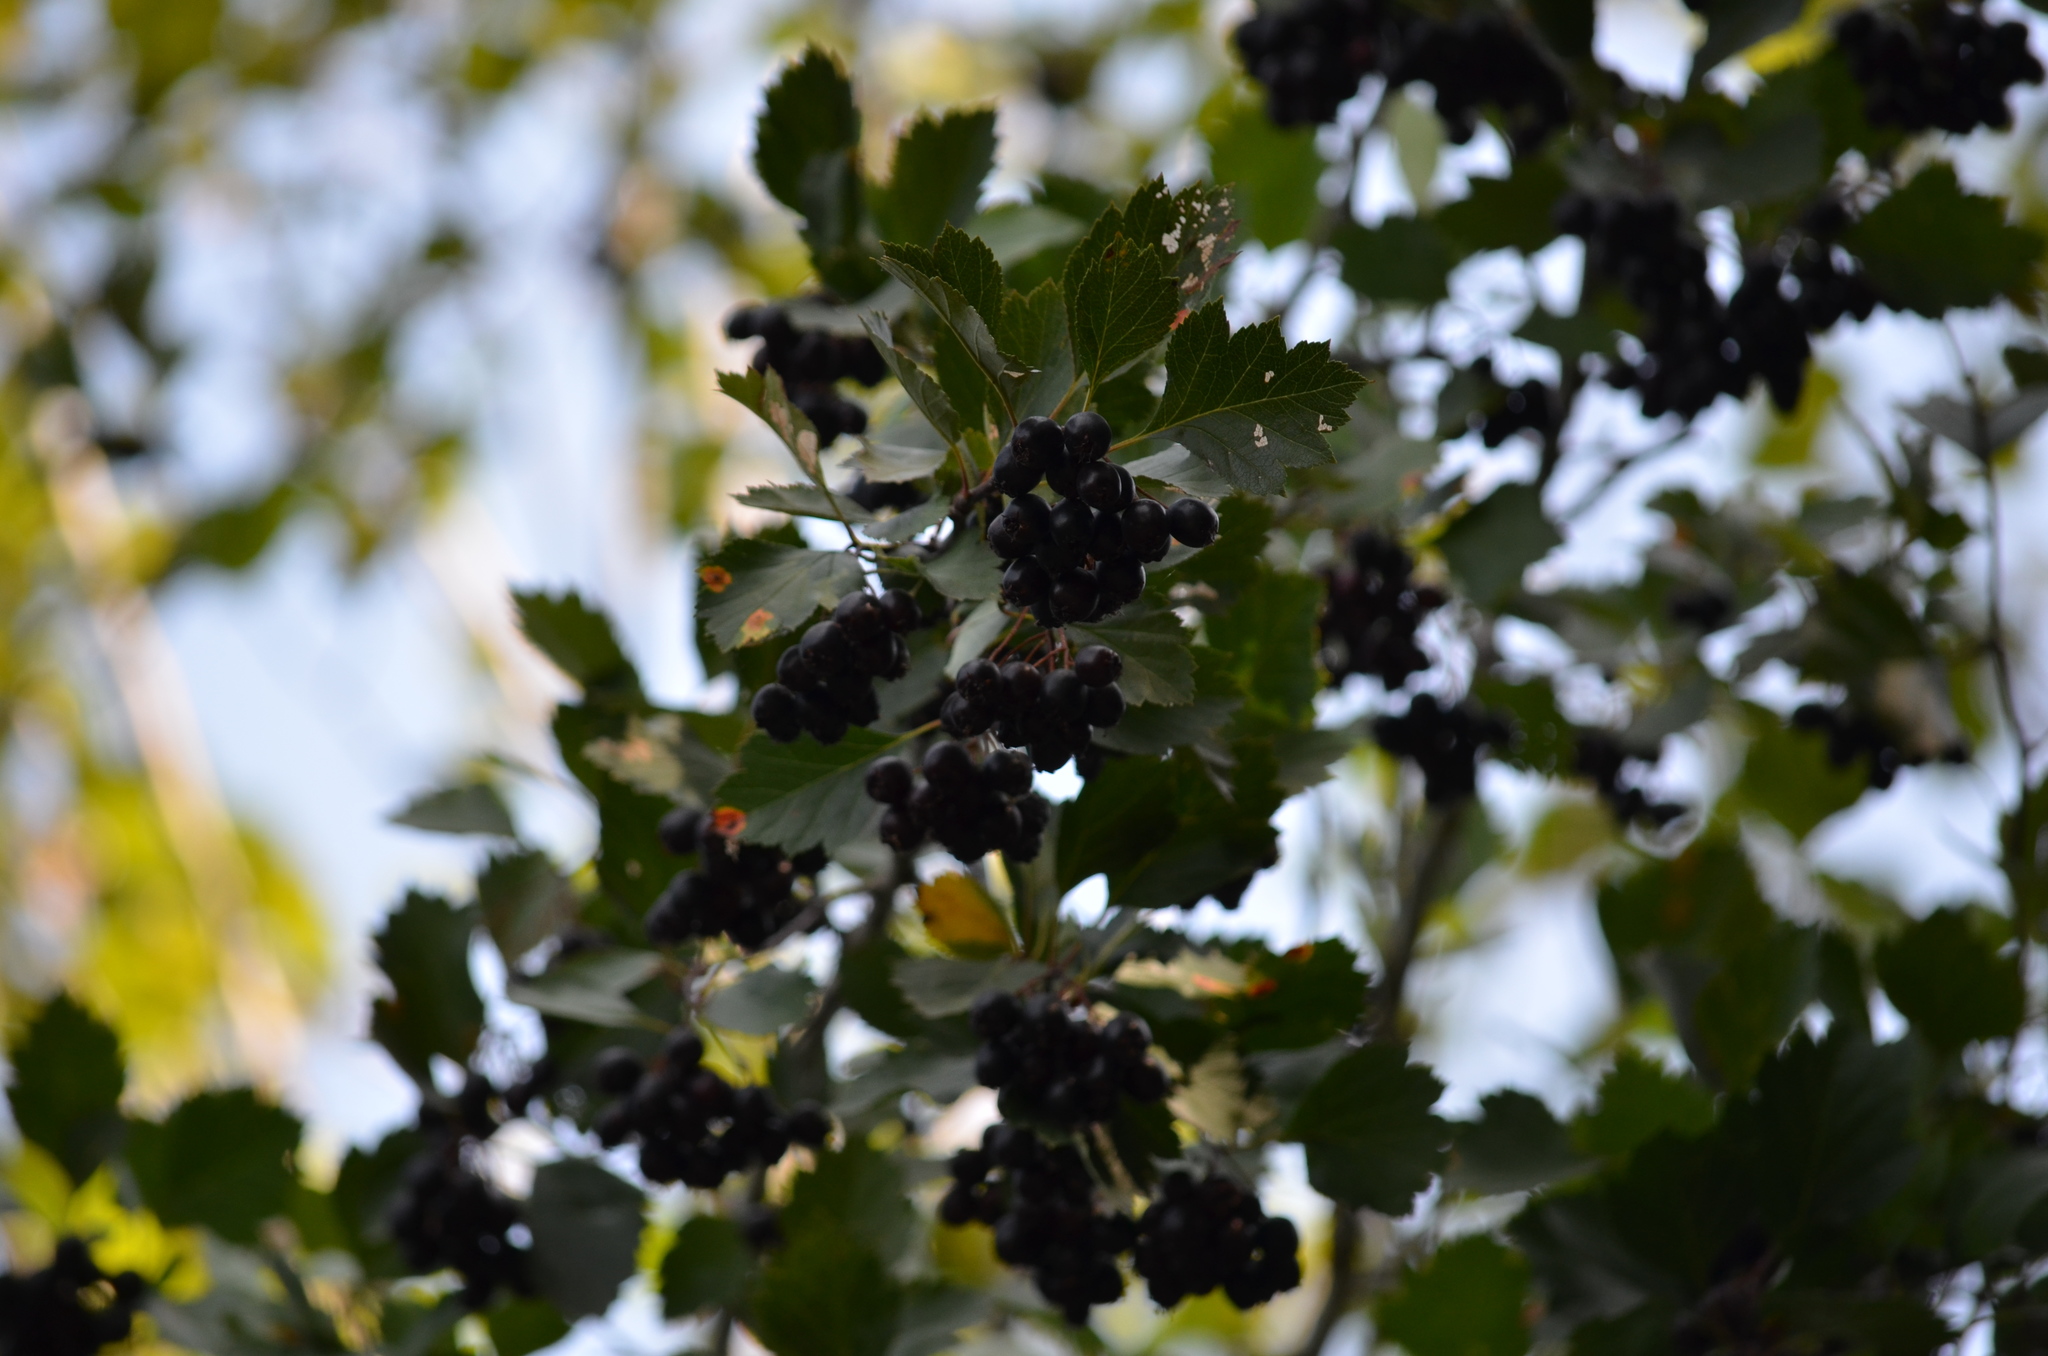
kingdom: Plantae
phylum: Tracheophyta
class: Magnoliopsida
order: Rosales
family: Rosaceae
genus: Crataegus
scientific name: Crataegus douglasii
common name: Black hawthorn
